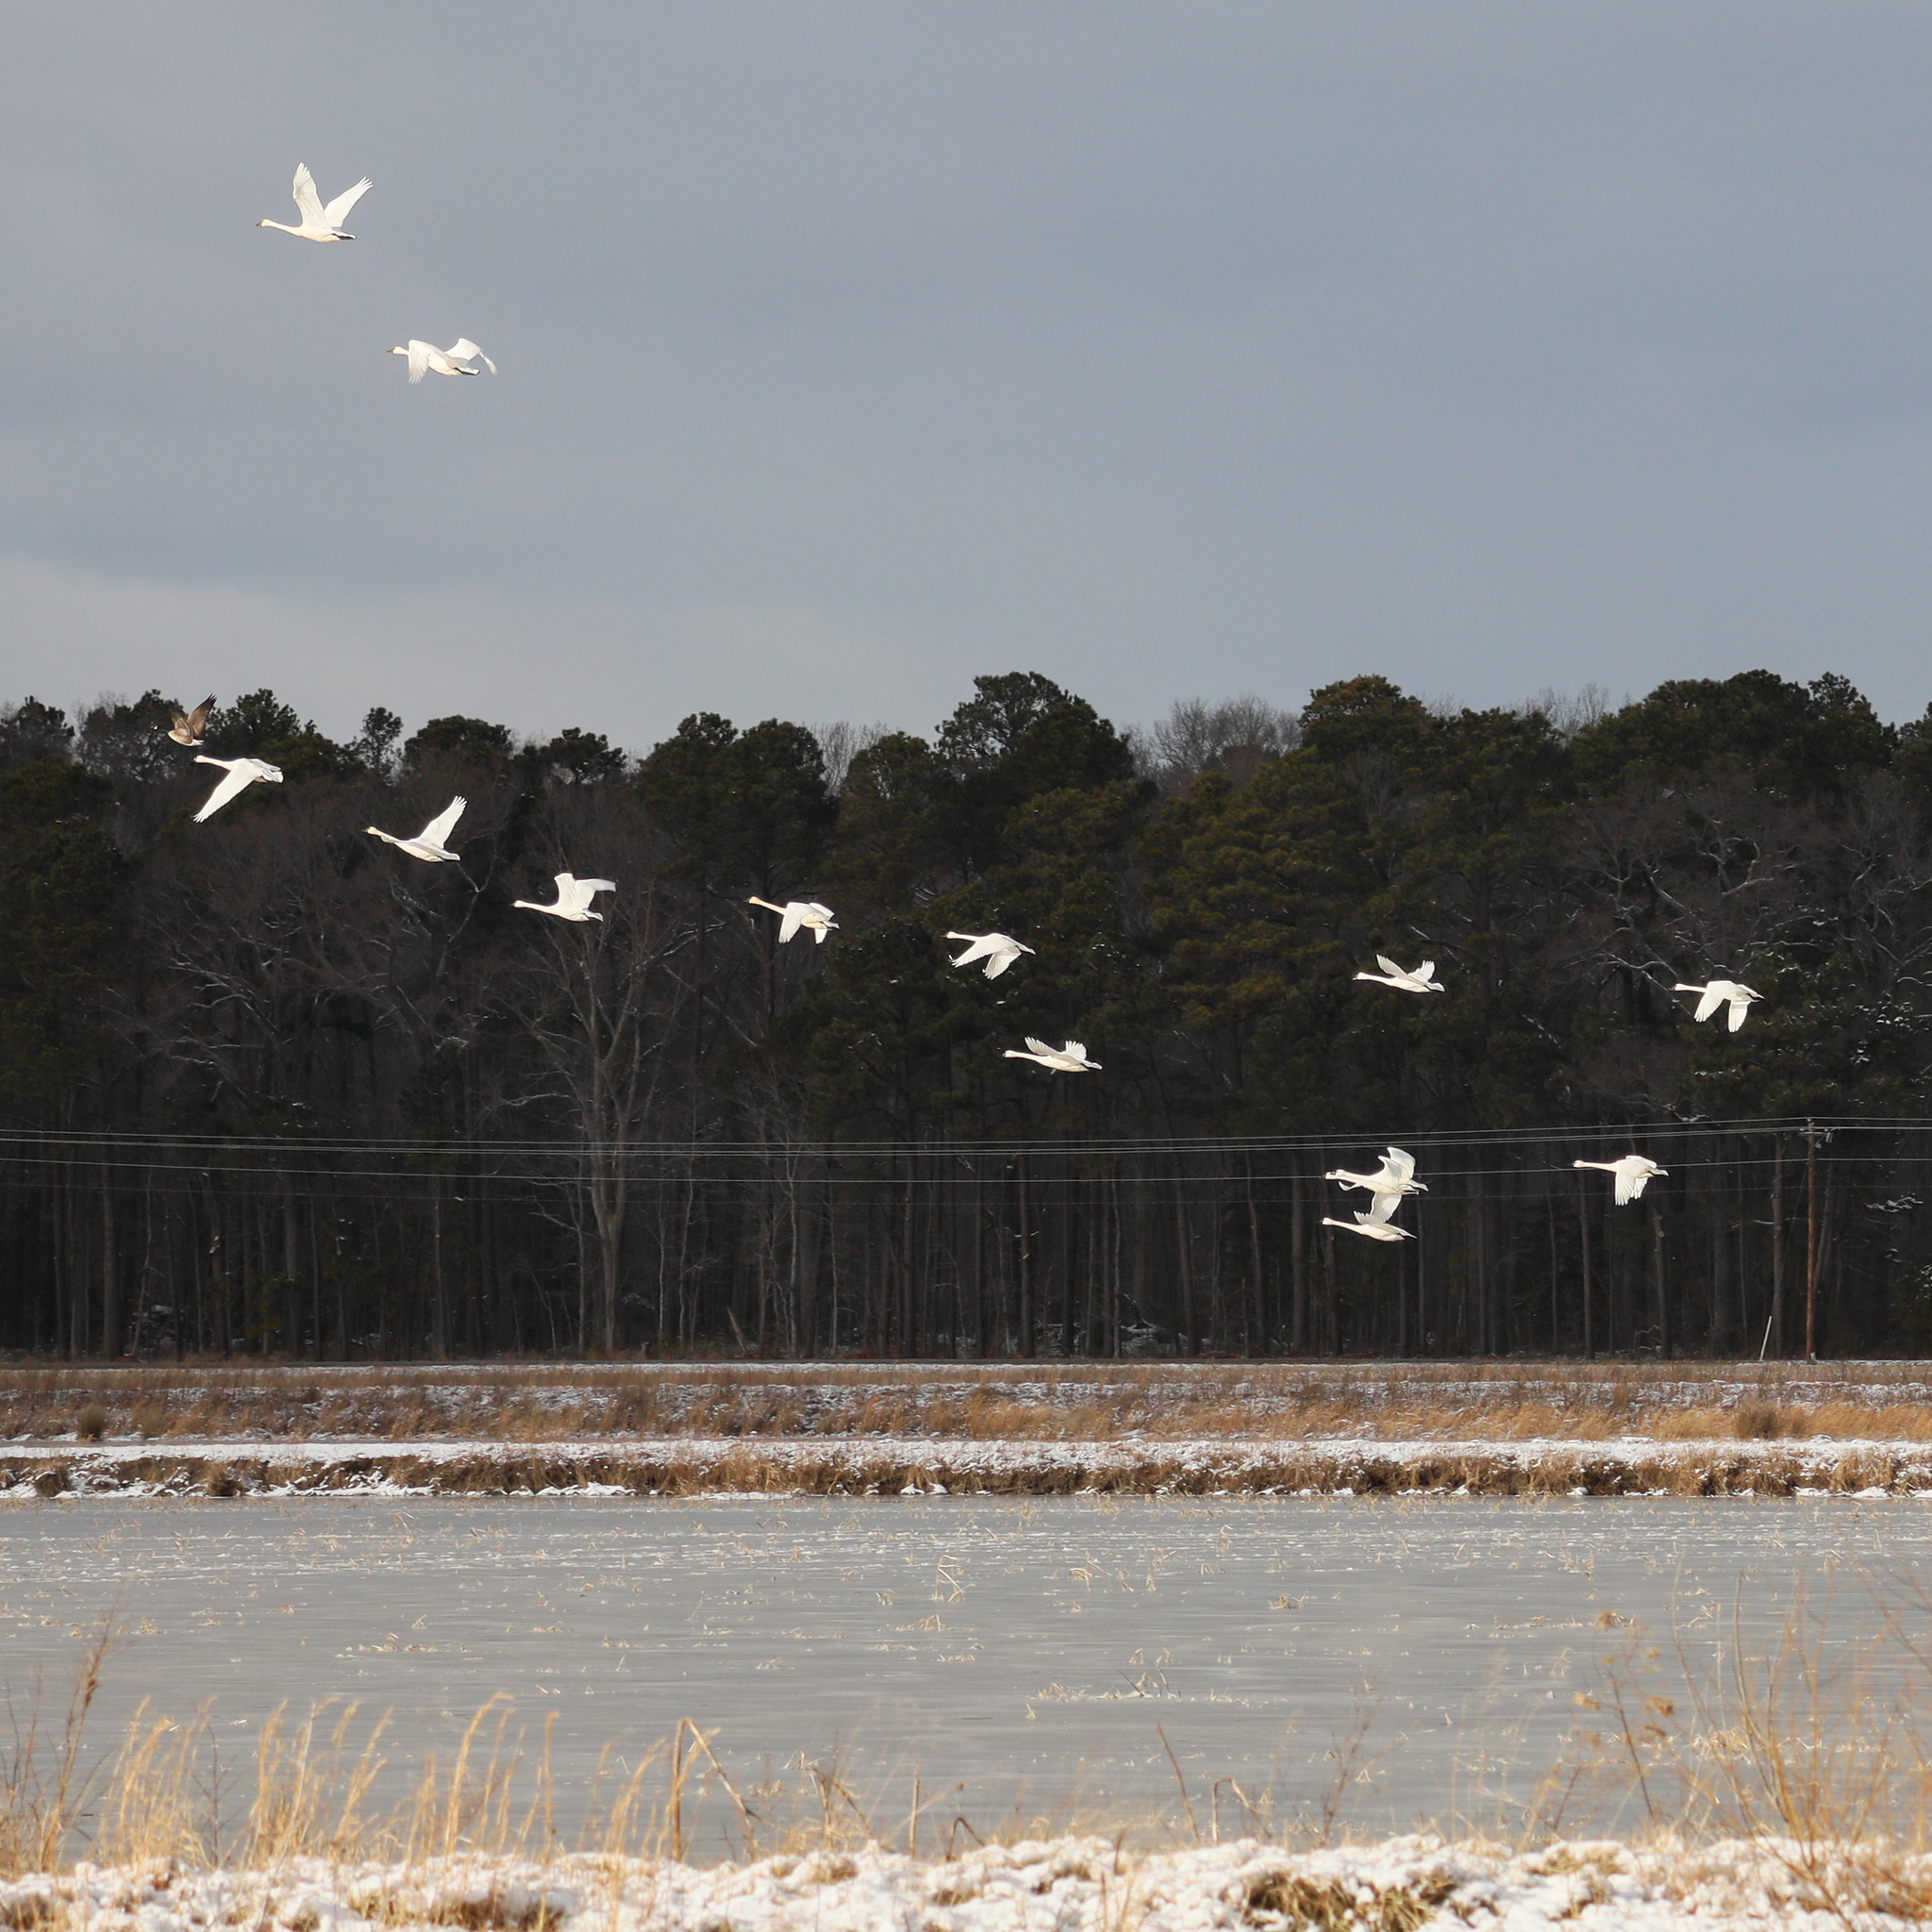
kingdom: Animalia
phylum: Chordata
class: Aves
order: Anseriformes
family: Anatidae
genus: Cygnus
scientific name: Cygnus columbianus
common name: Tundra swan
